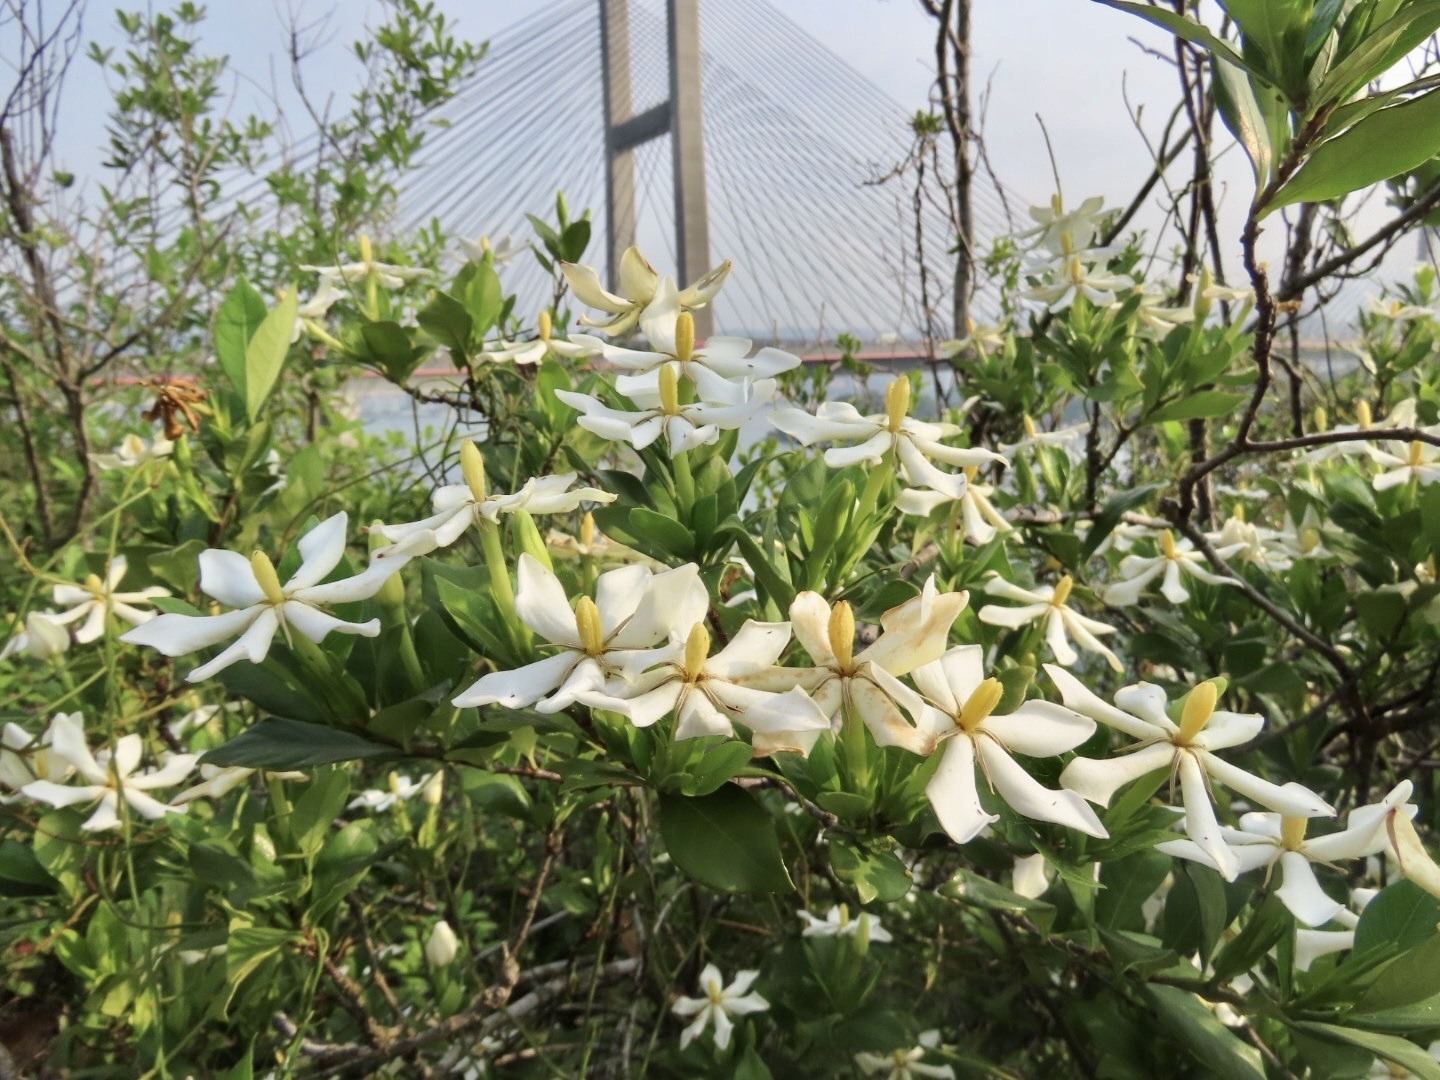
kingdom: Plantae
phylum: Tracheophyta
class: Magnoliopsida
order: Gentianales
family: Rubiaceae
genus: Gardenia
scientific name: Gardenia jasminoides
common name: Cape-jasmine
